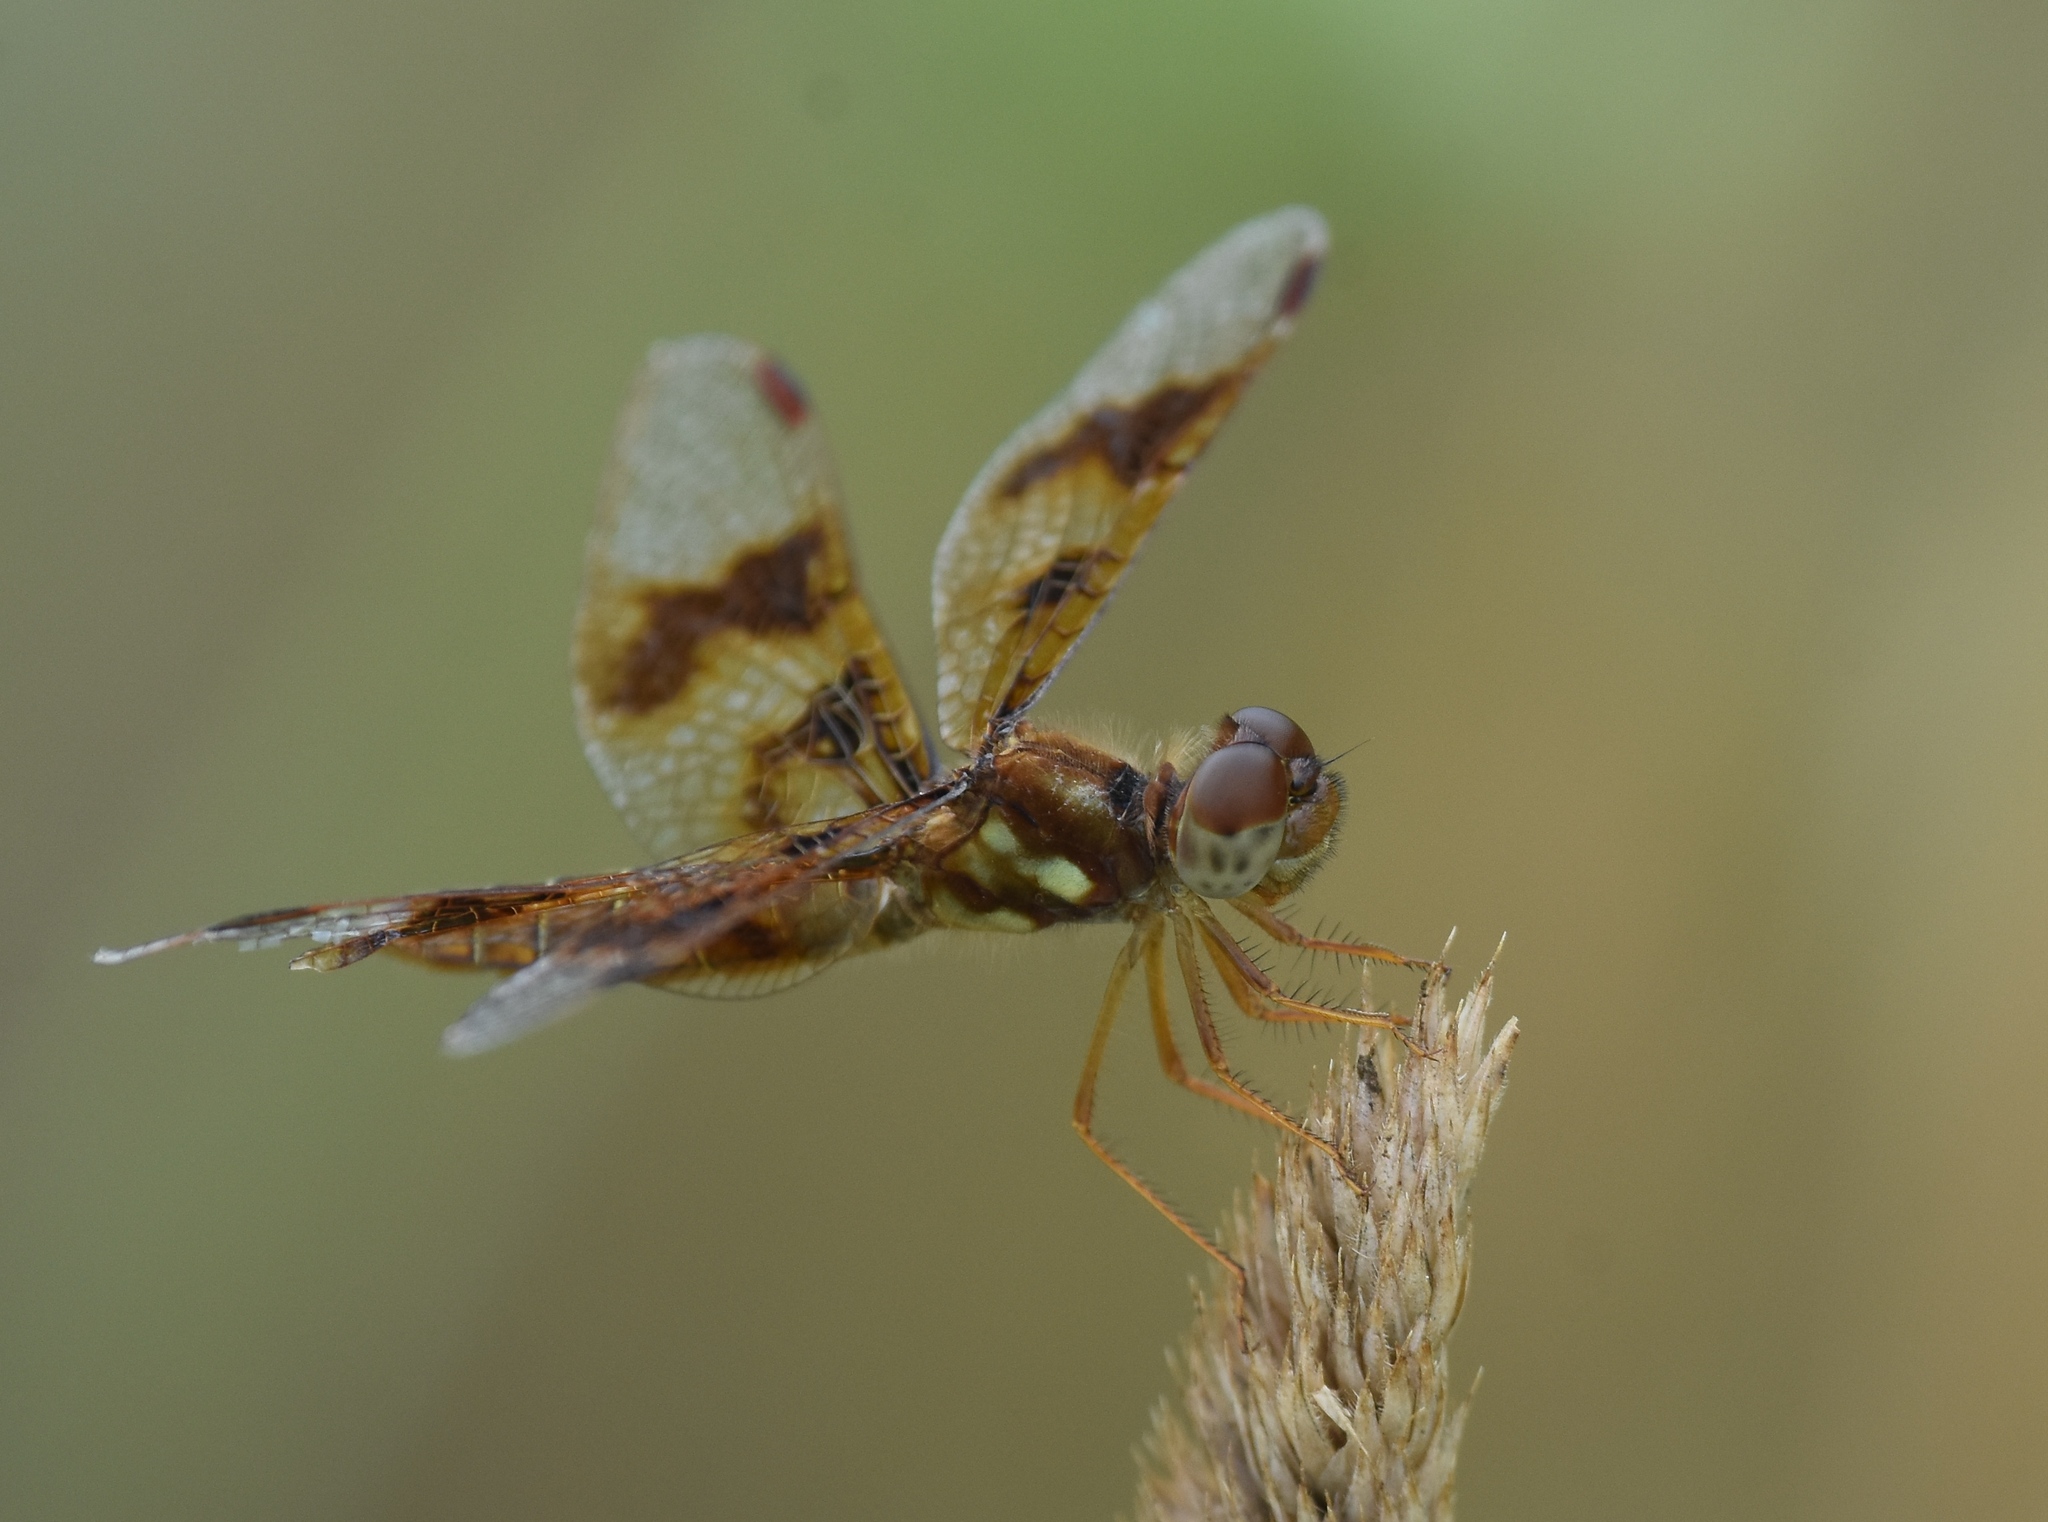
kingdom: Animalia
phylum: Arthropoda
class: Insecta
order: Odonata
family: Libellulidae
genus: Perithemis
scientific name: Perithemis tenera
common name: Eastern amberwing
